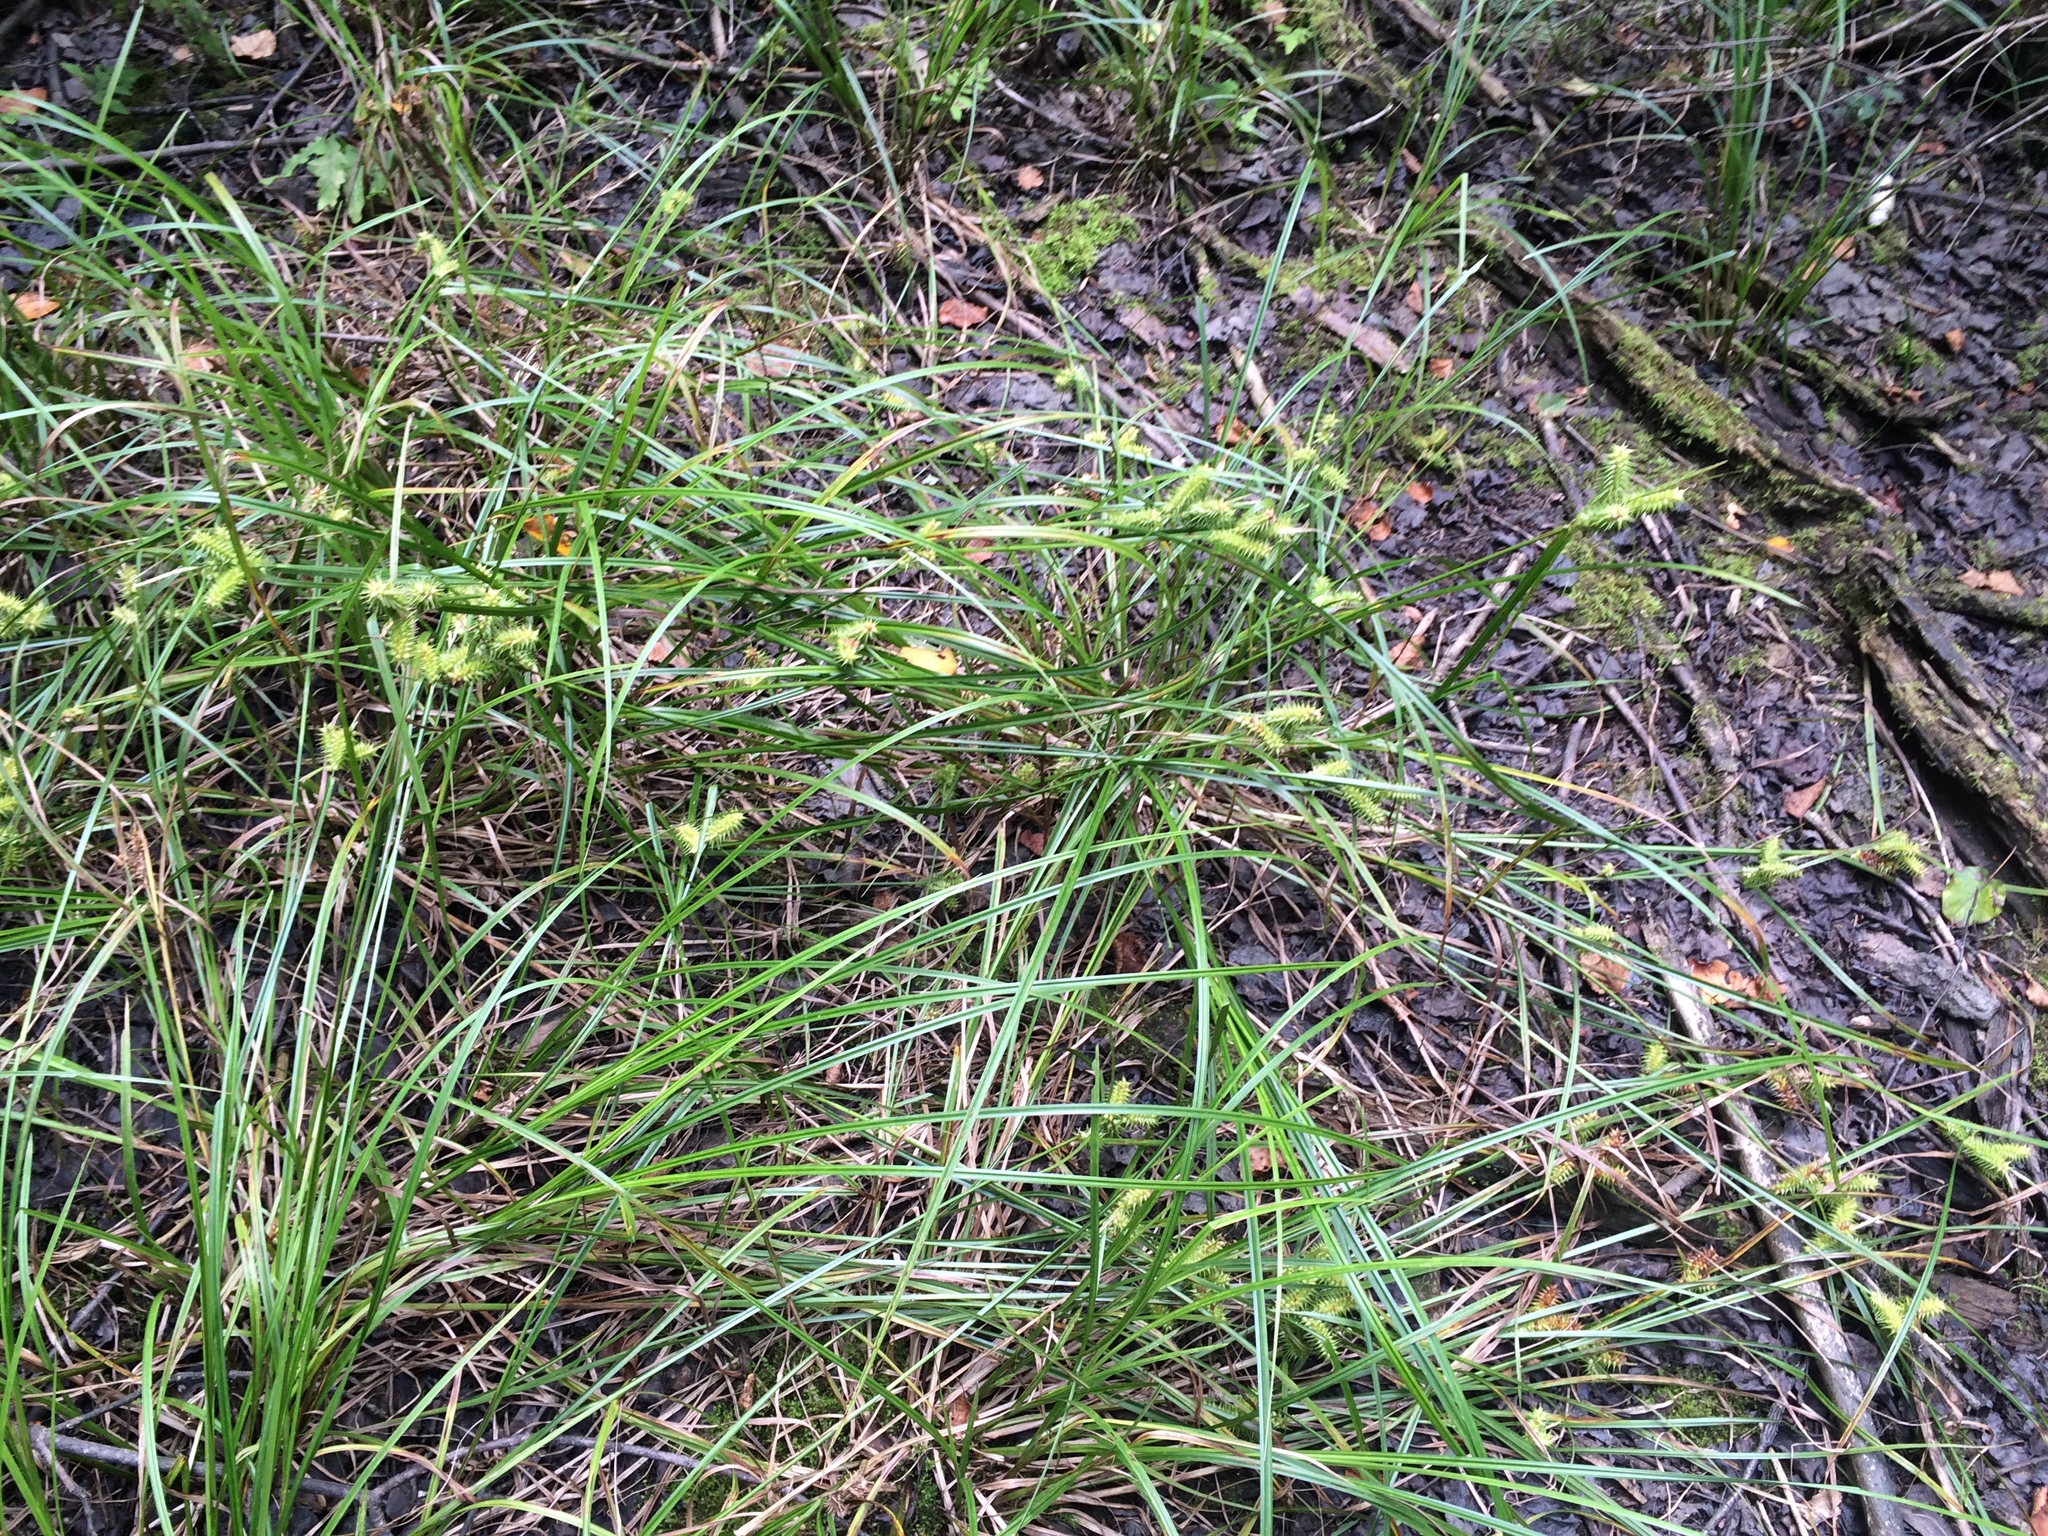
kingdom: Plantae
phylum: Tracheophyta
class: Liliopsida
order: Poales
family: Cyperaceae
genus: Carex
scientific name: Carex retrorsa
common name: Knot-sheath sedge
